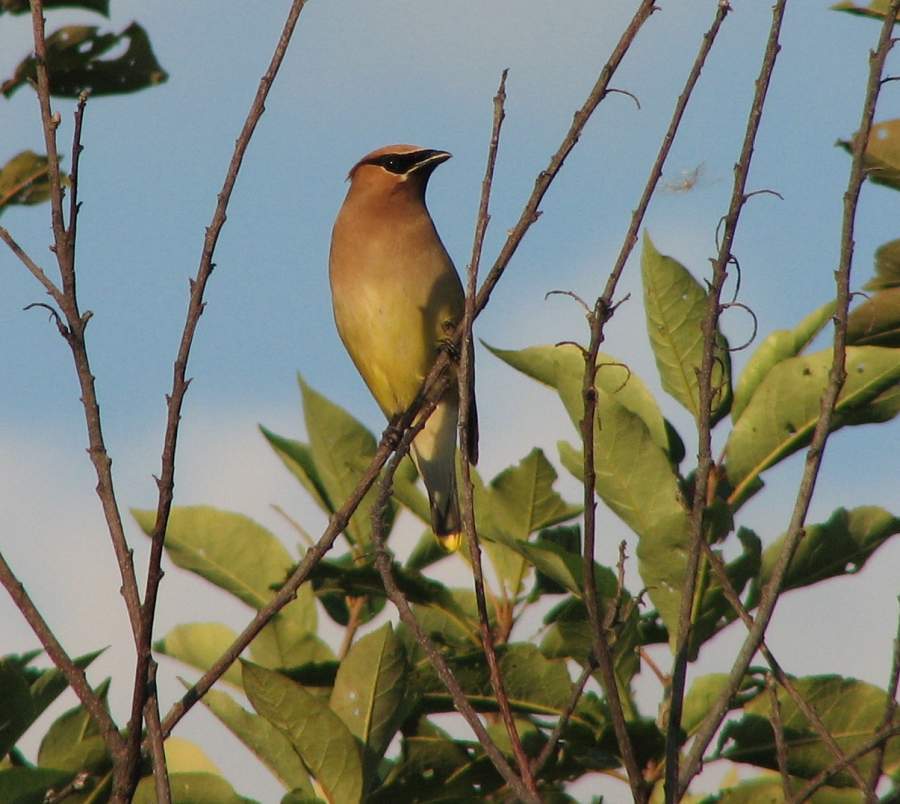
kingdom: Animalia
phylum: Chordata
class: Aves
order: Passeriformes
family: Bombycillidae
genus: Bombycilla
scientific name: Bombycilla cedrorum
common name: Cedar waxwing
